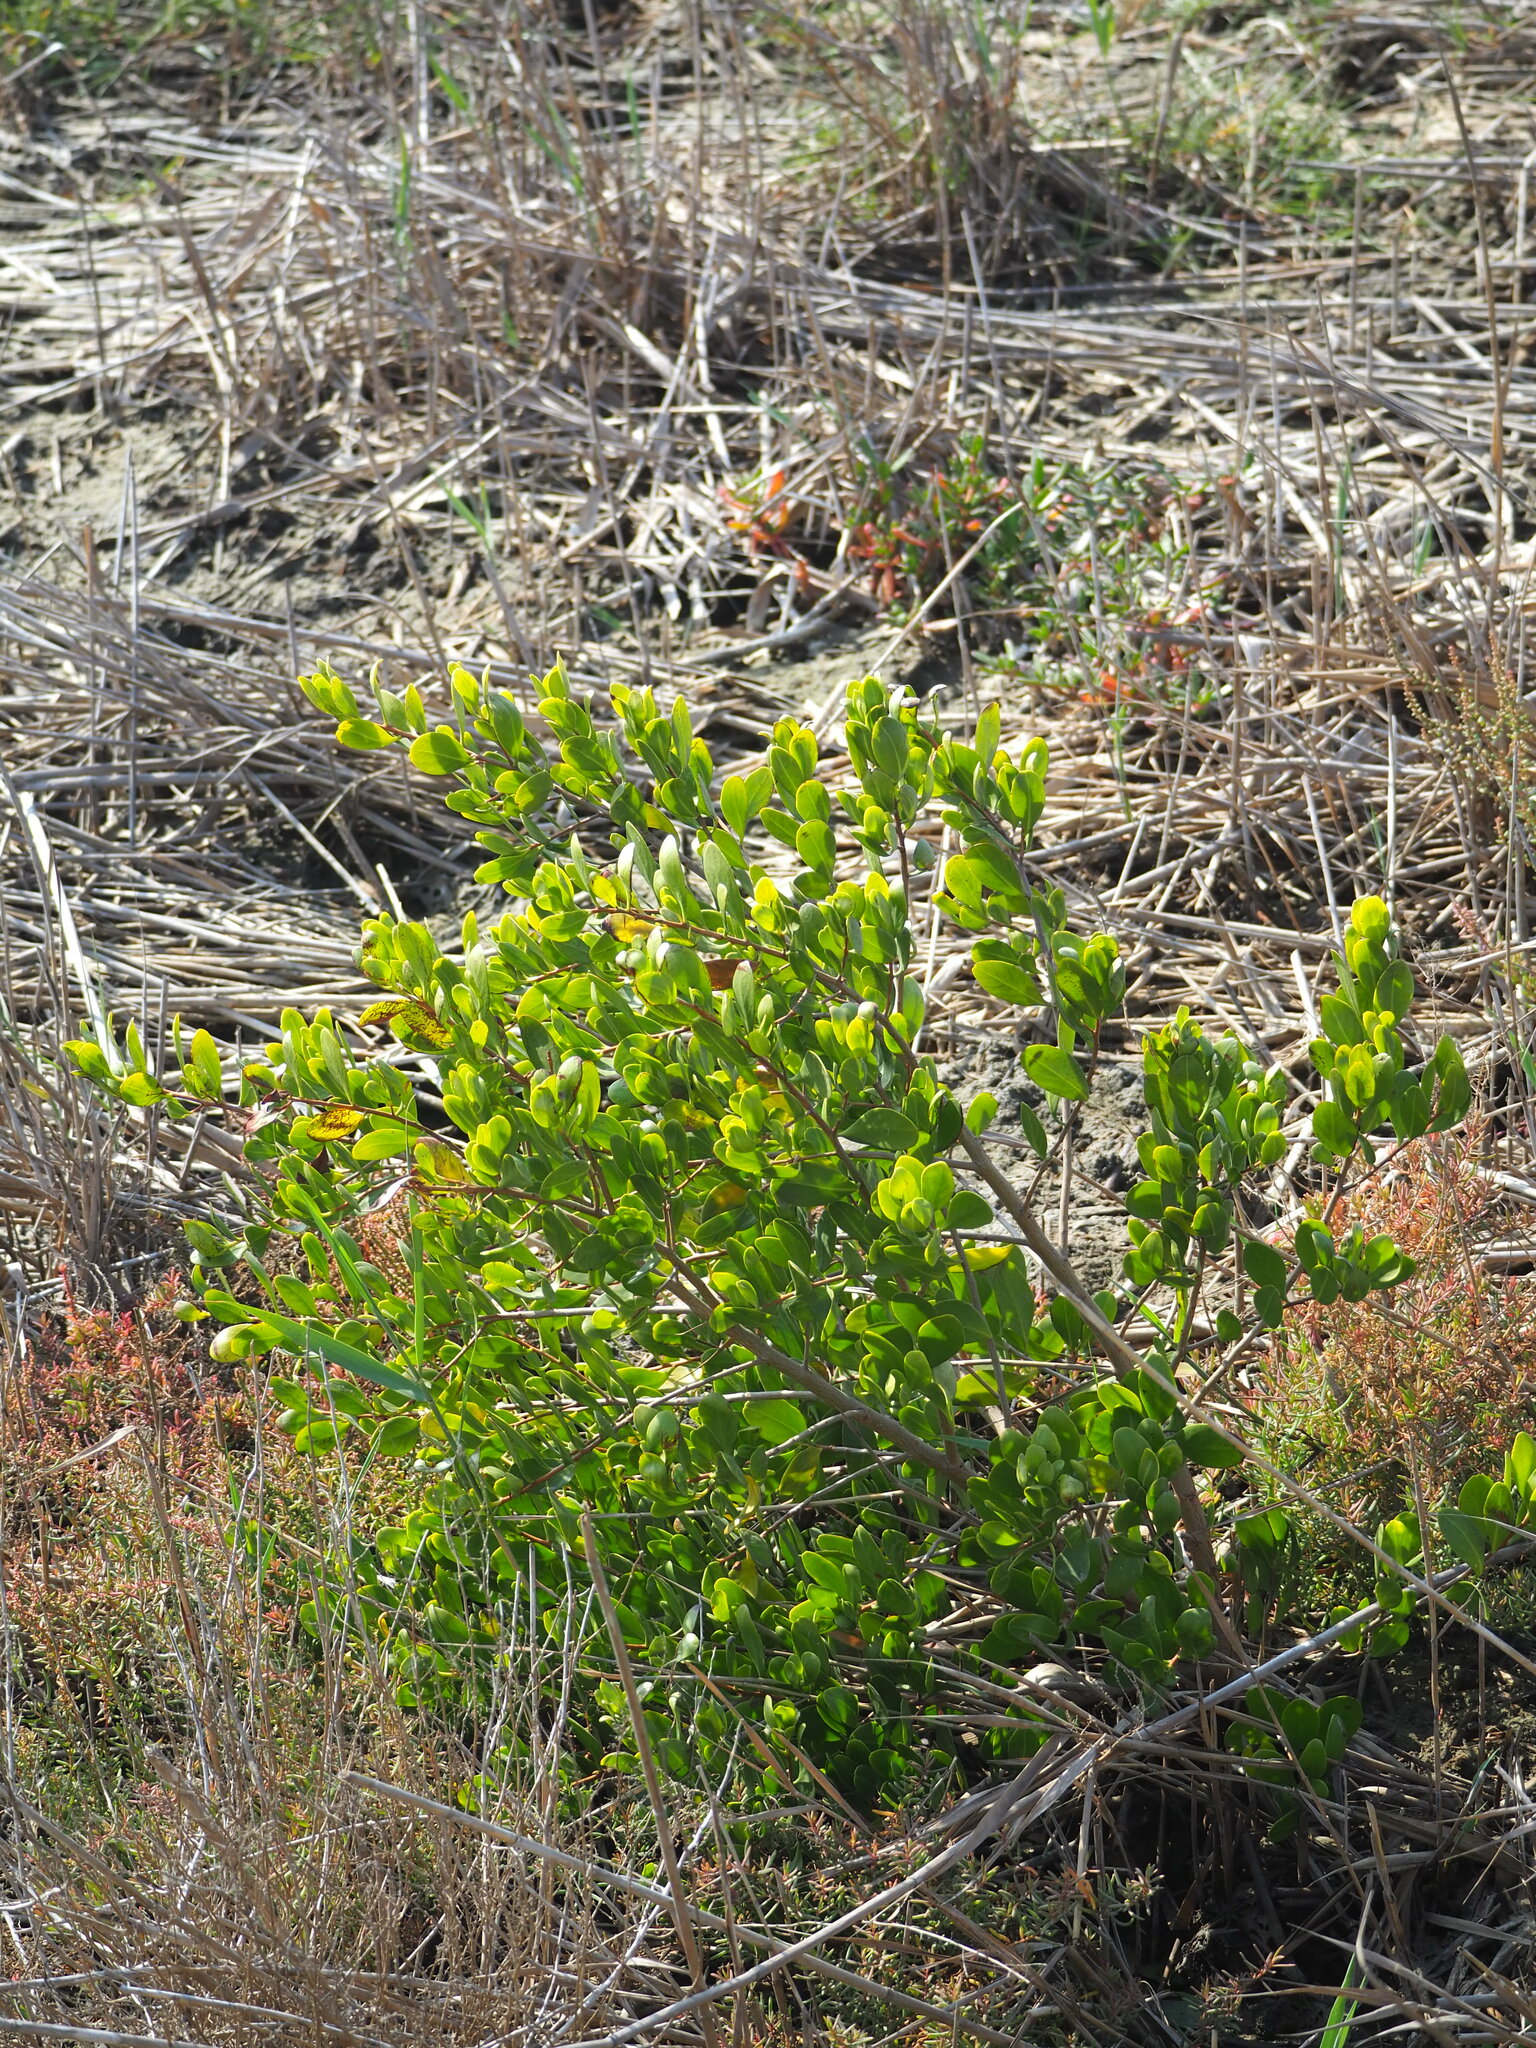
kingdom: Plantae
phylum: Tracheophyta
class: Magnoliopsida
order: Myrtales
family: Combretaceae
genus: Lumnitzera
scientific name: Lumnitzera racemosa
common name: White-flowered black mangrove
